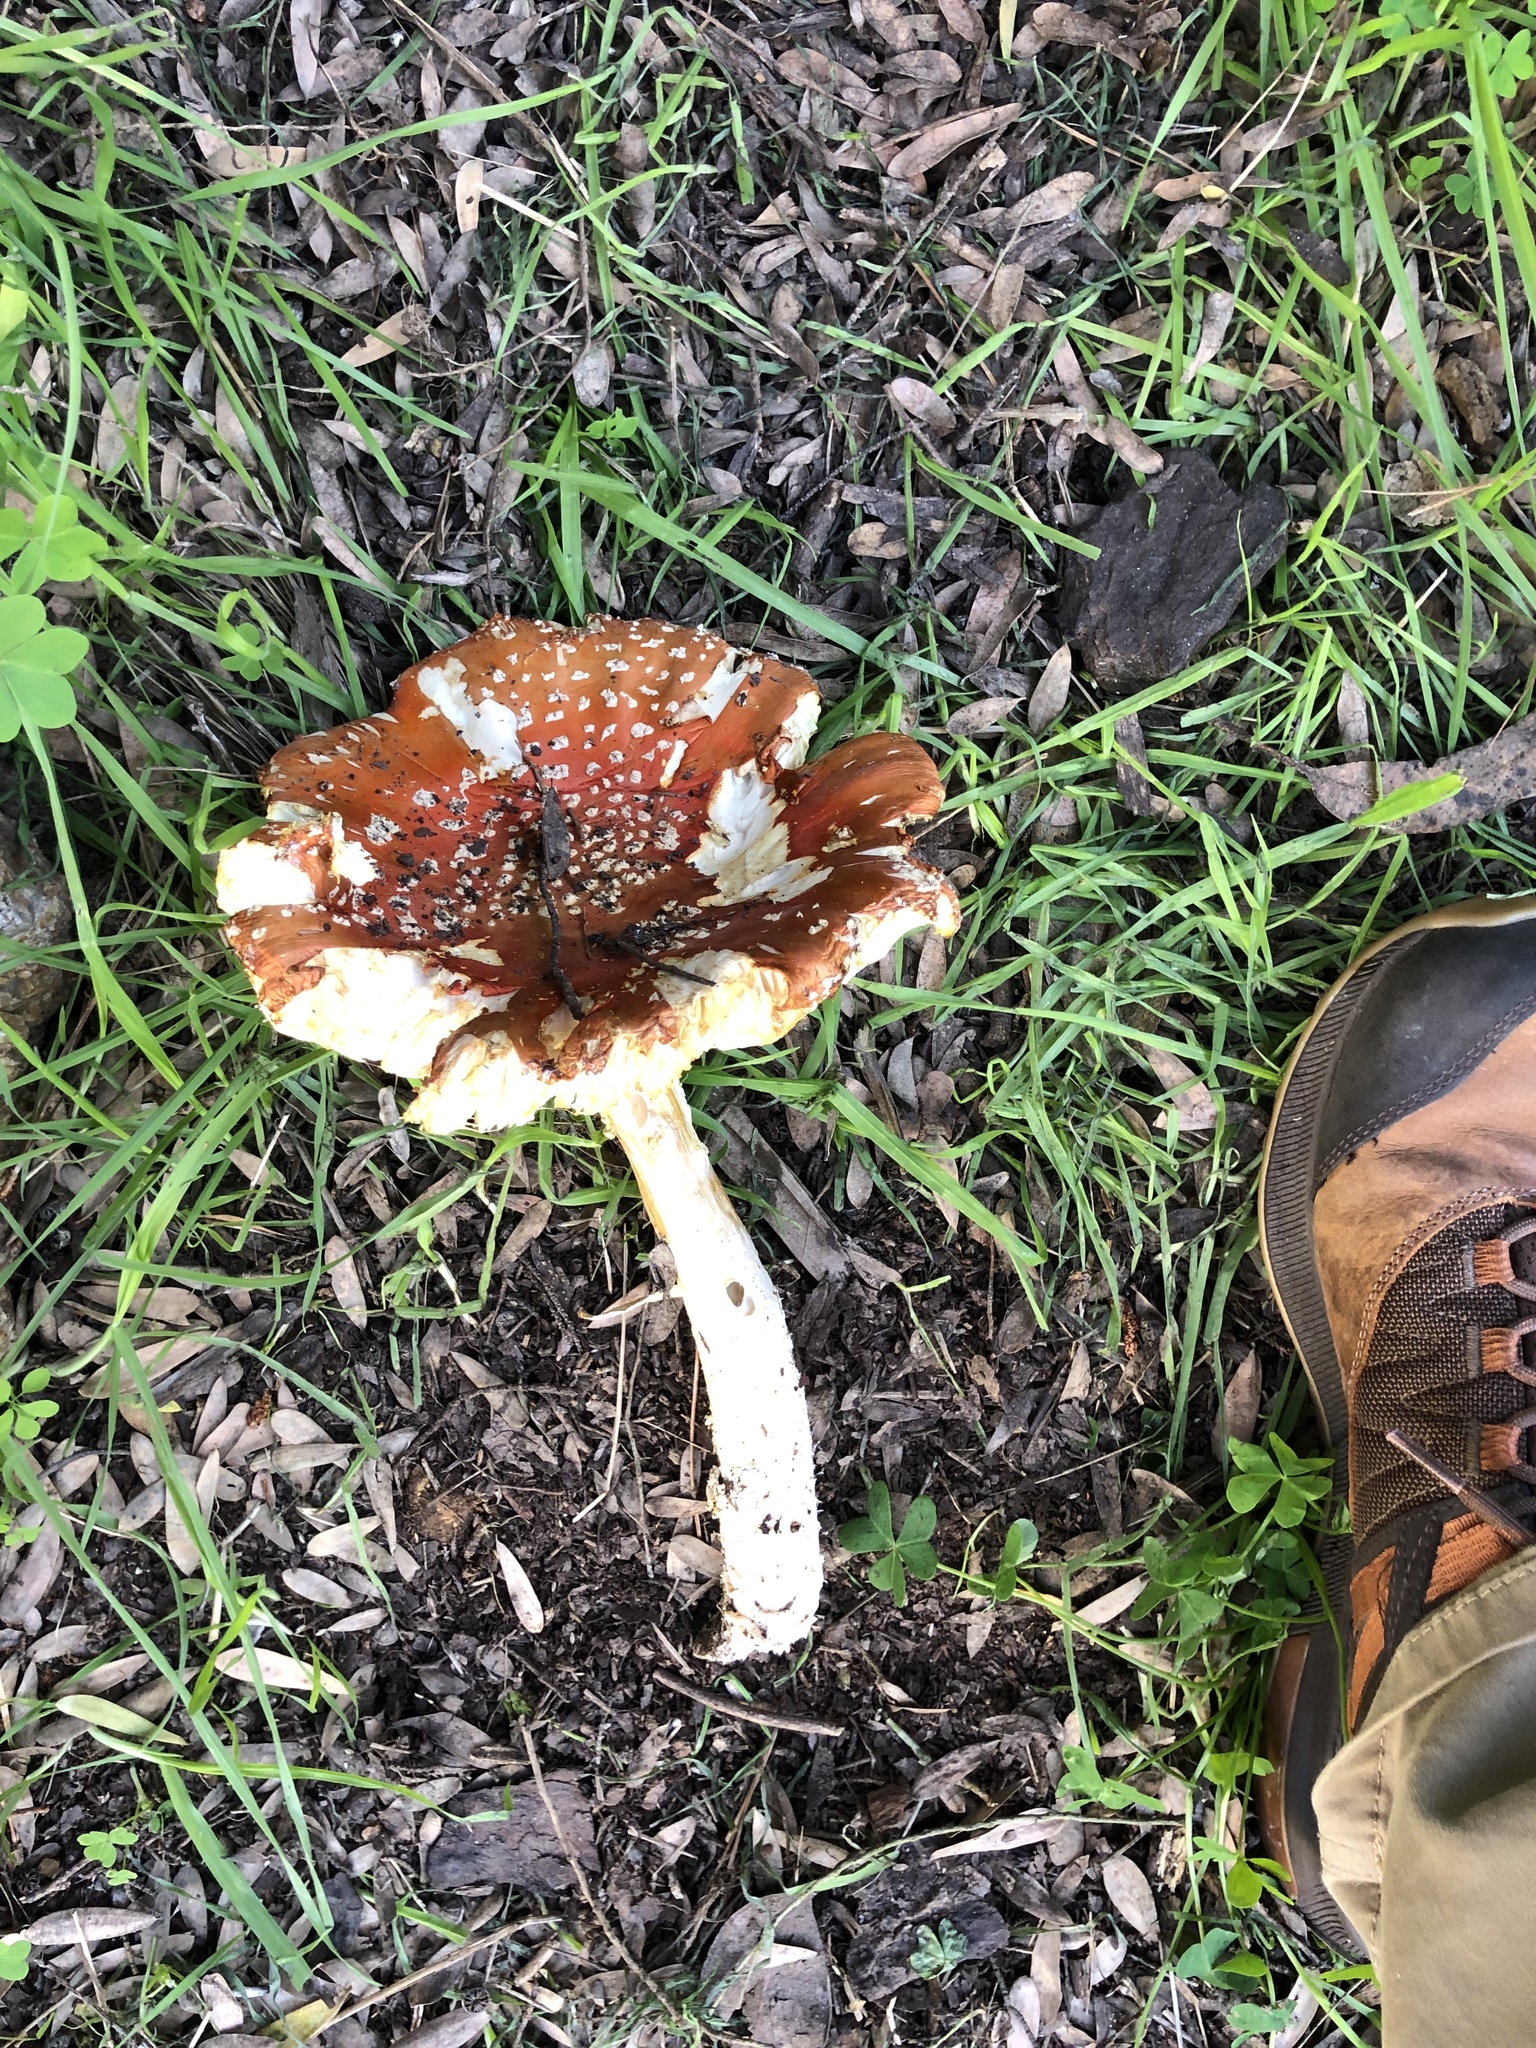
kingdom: Fungi
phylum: Basidiomycota
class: Agaricomycetes
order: Agaricales
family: Amanitaceae
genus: Amanita
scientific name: Amanita muscaria
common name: Fly agaric
